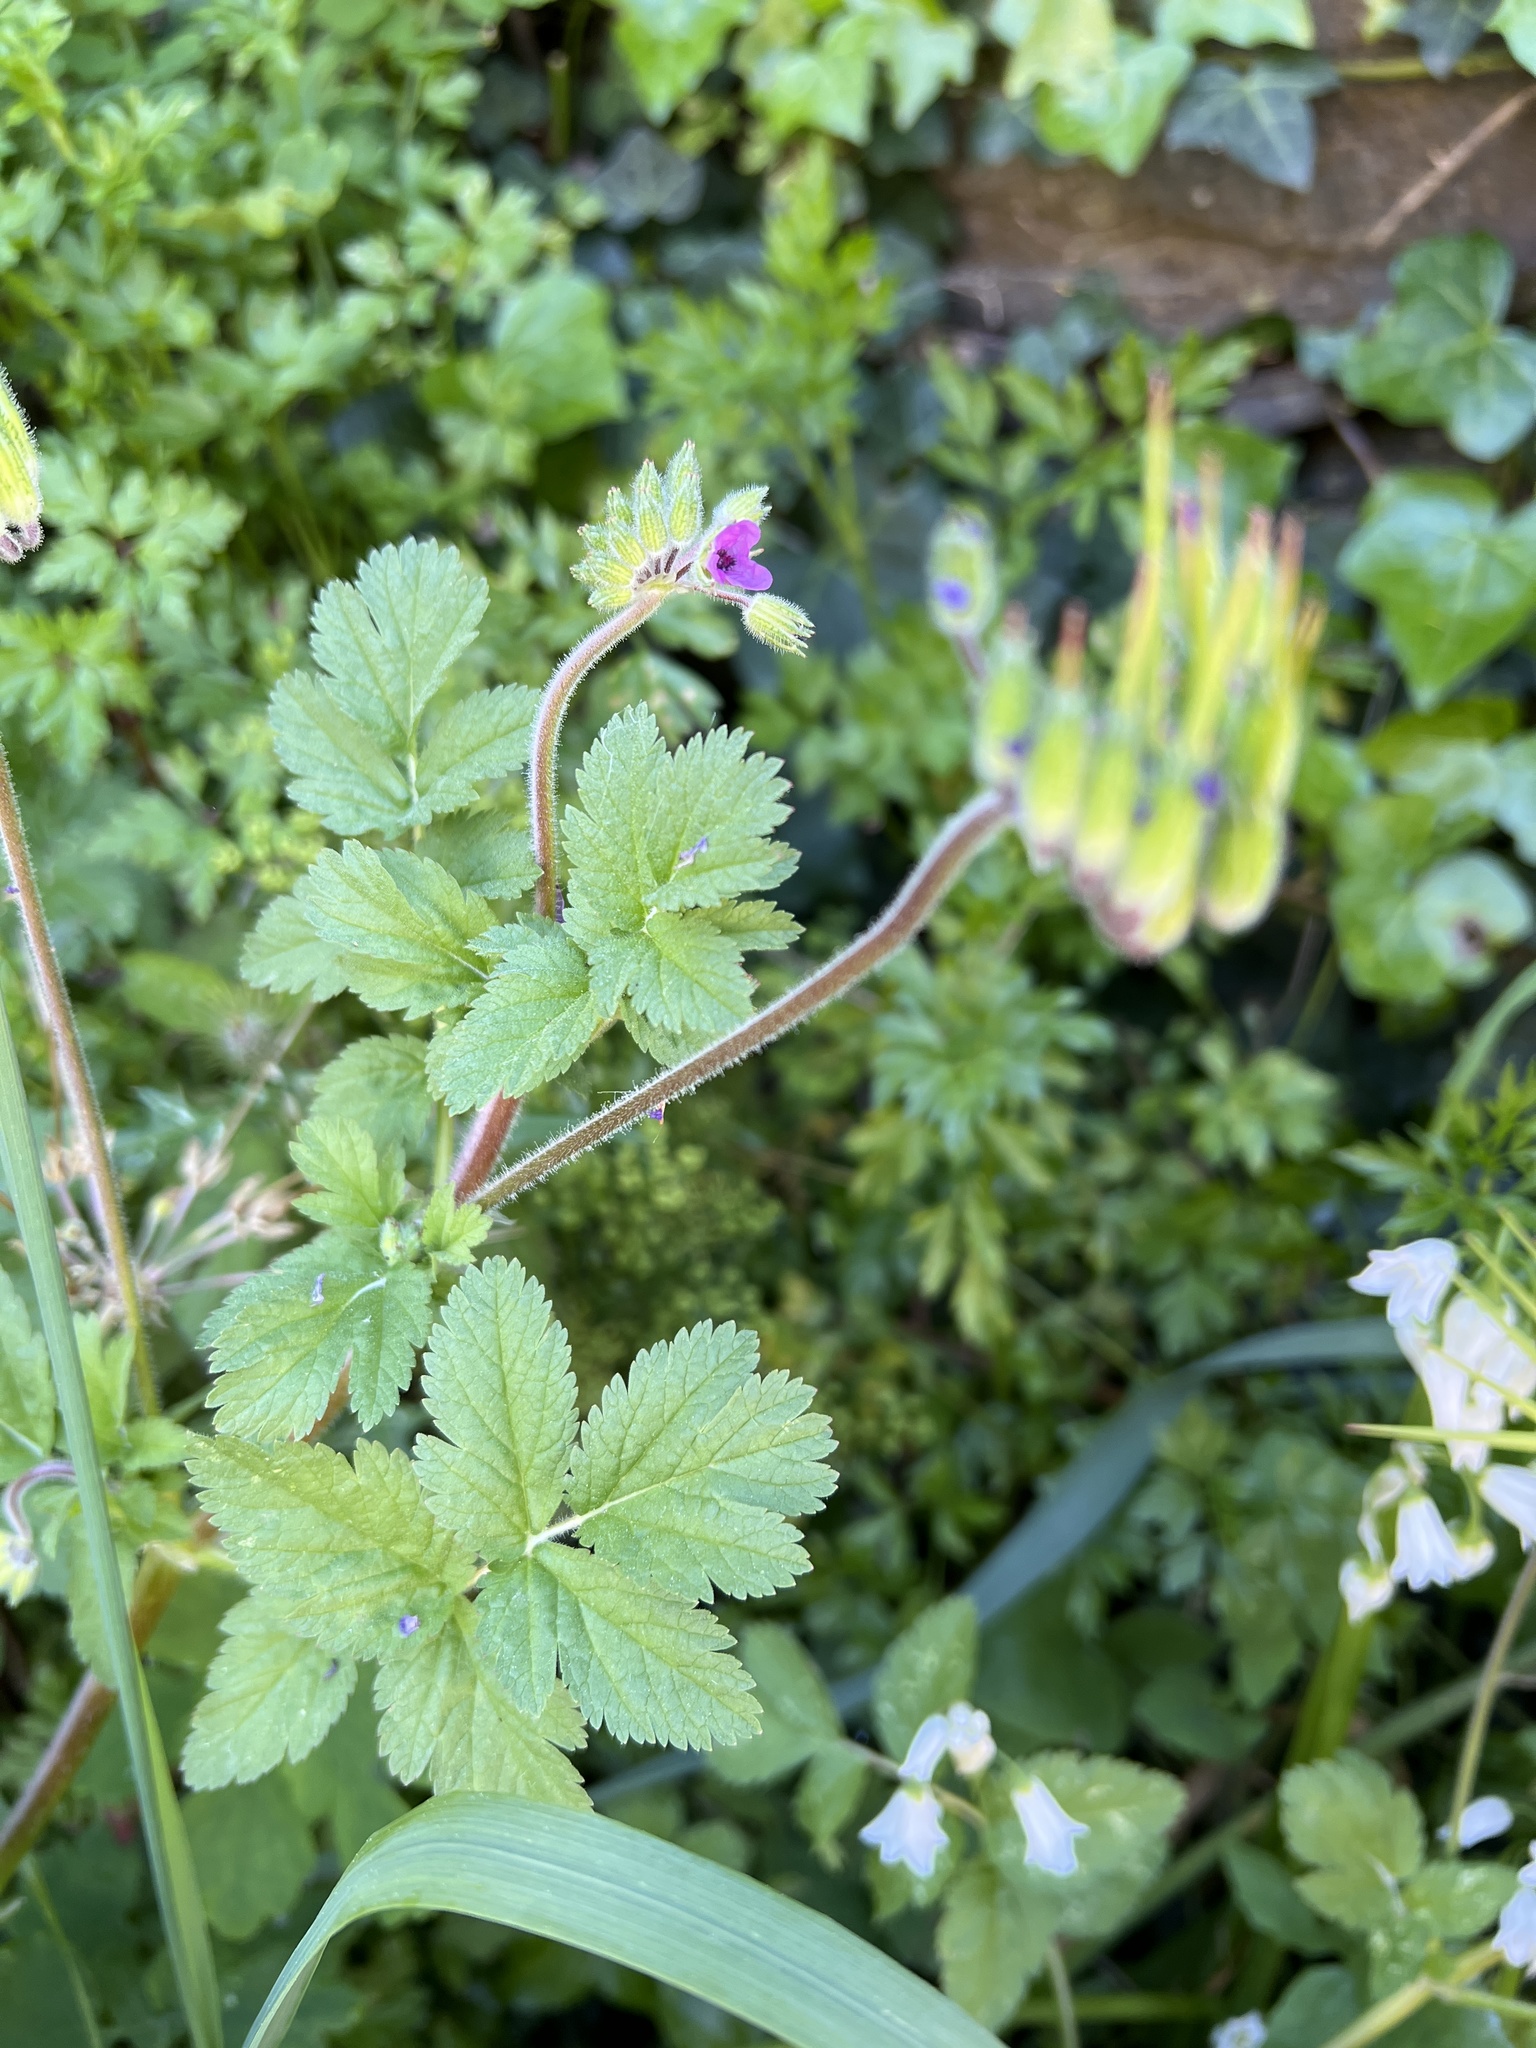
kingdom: Plantae
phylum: Tracheophyta
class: Magnoliopsida
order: Geraniales
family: Geraniaceae
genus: Erodium
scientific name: Erodium moschatum
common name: Musk stork's-bill
